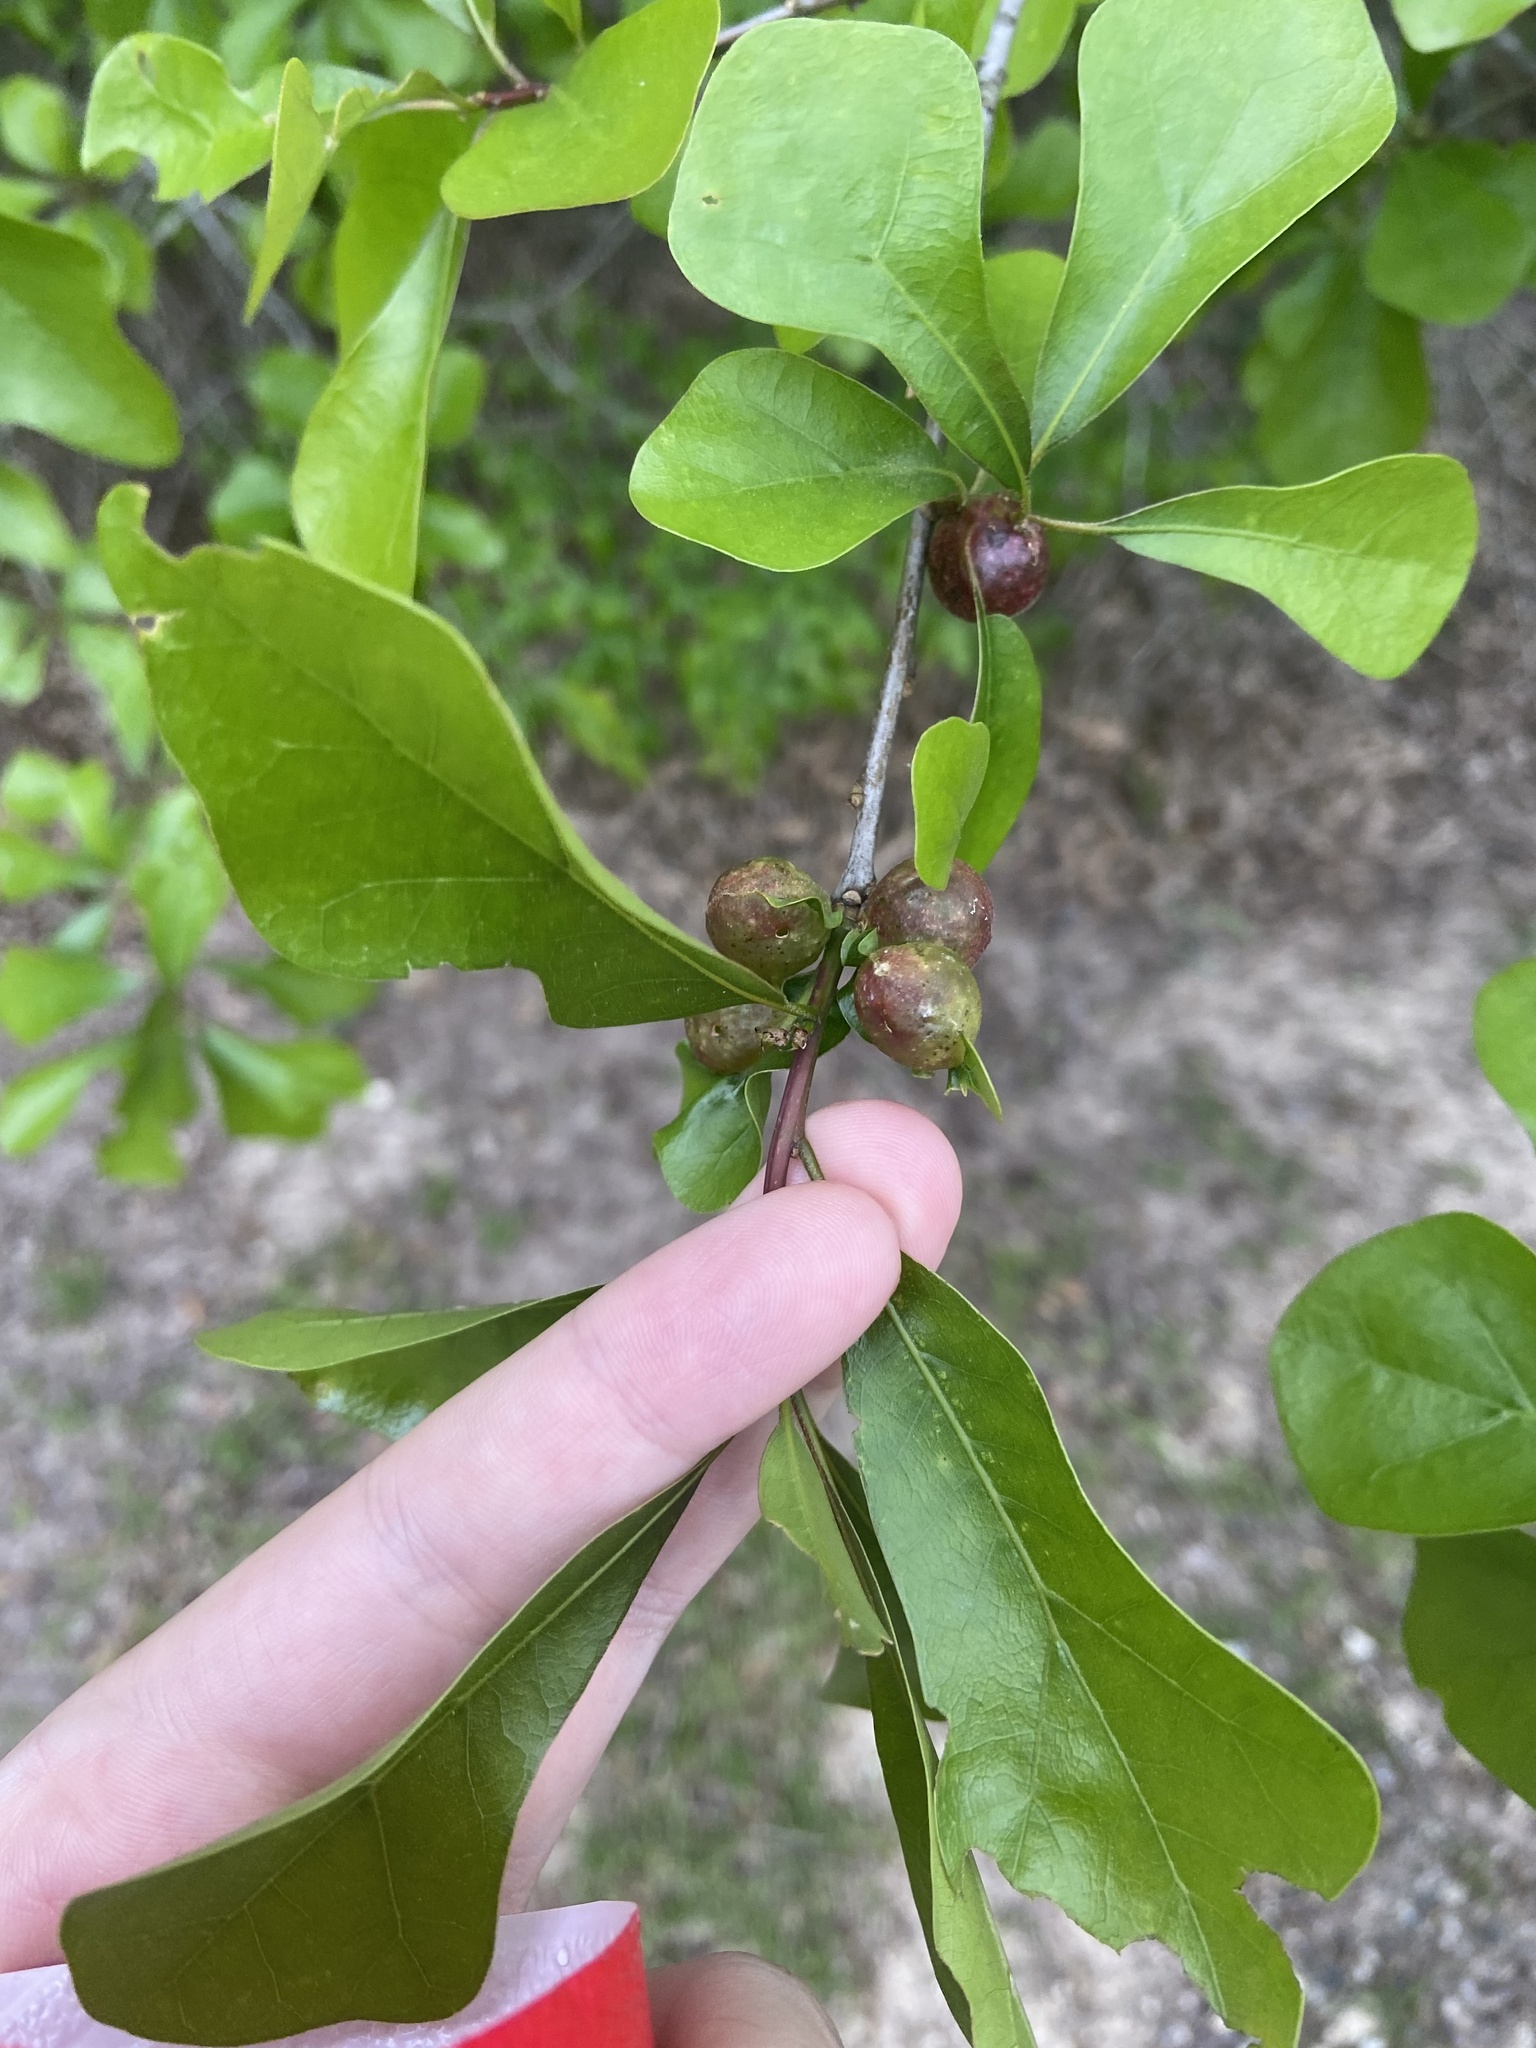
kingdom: Animalia
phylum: Arthropoda
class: Insecta
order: Hymenoptera
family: Cynipidae
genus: Dryocosmus
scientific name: Dryocosmus quercuspalustris
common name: Succulent oak gall wasp
